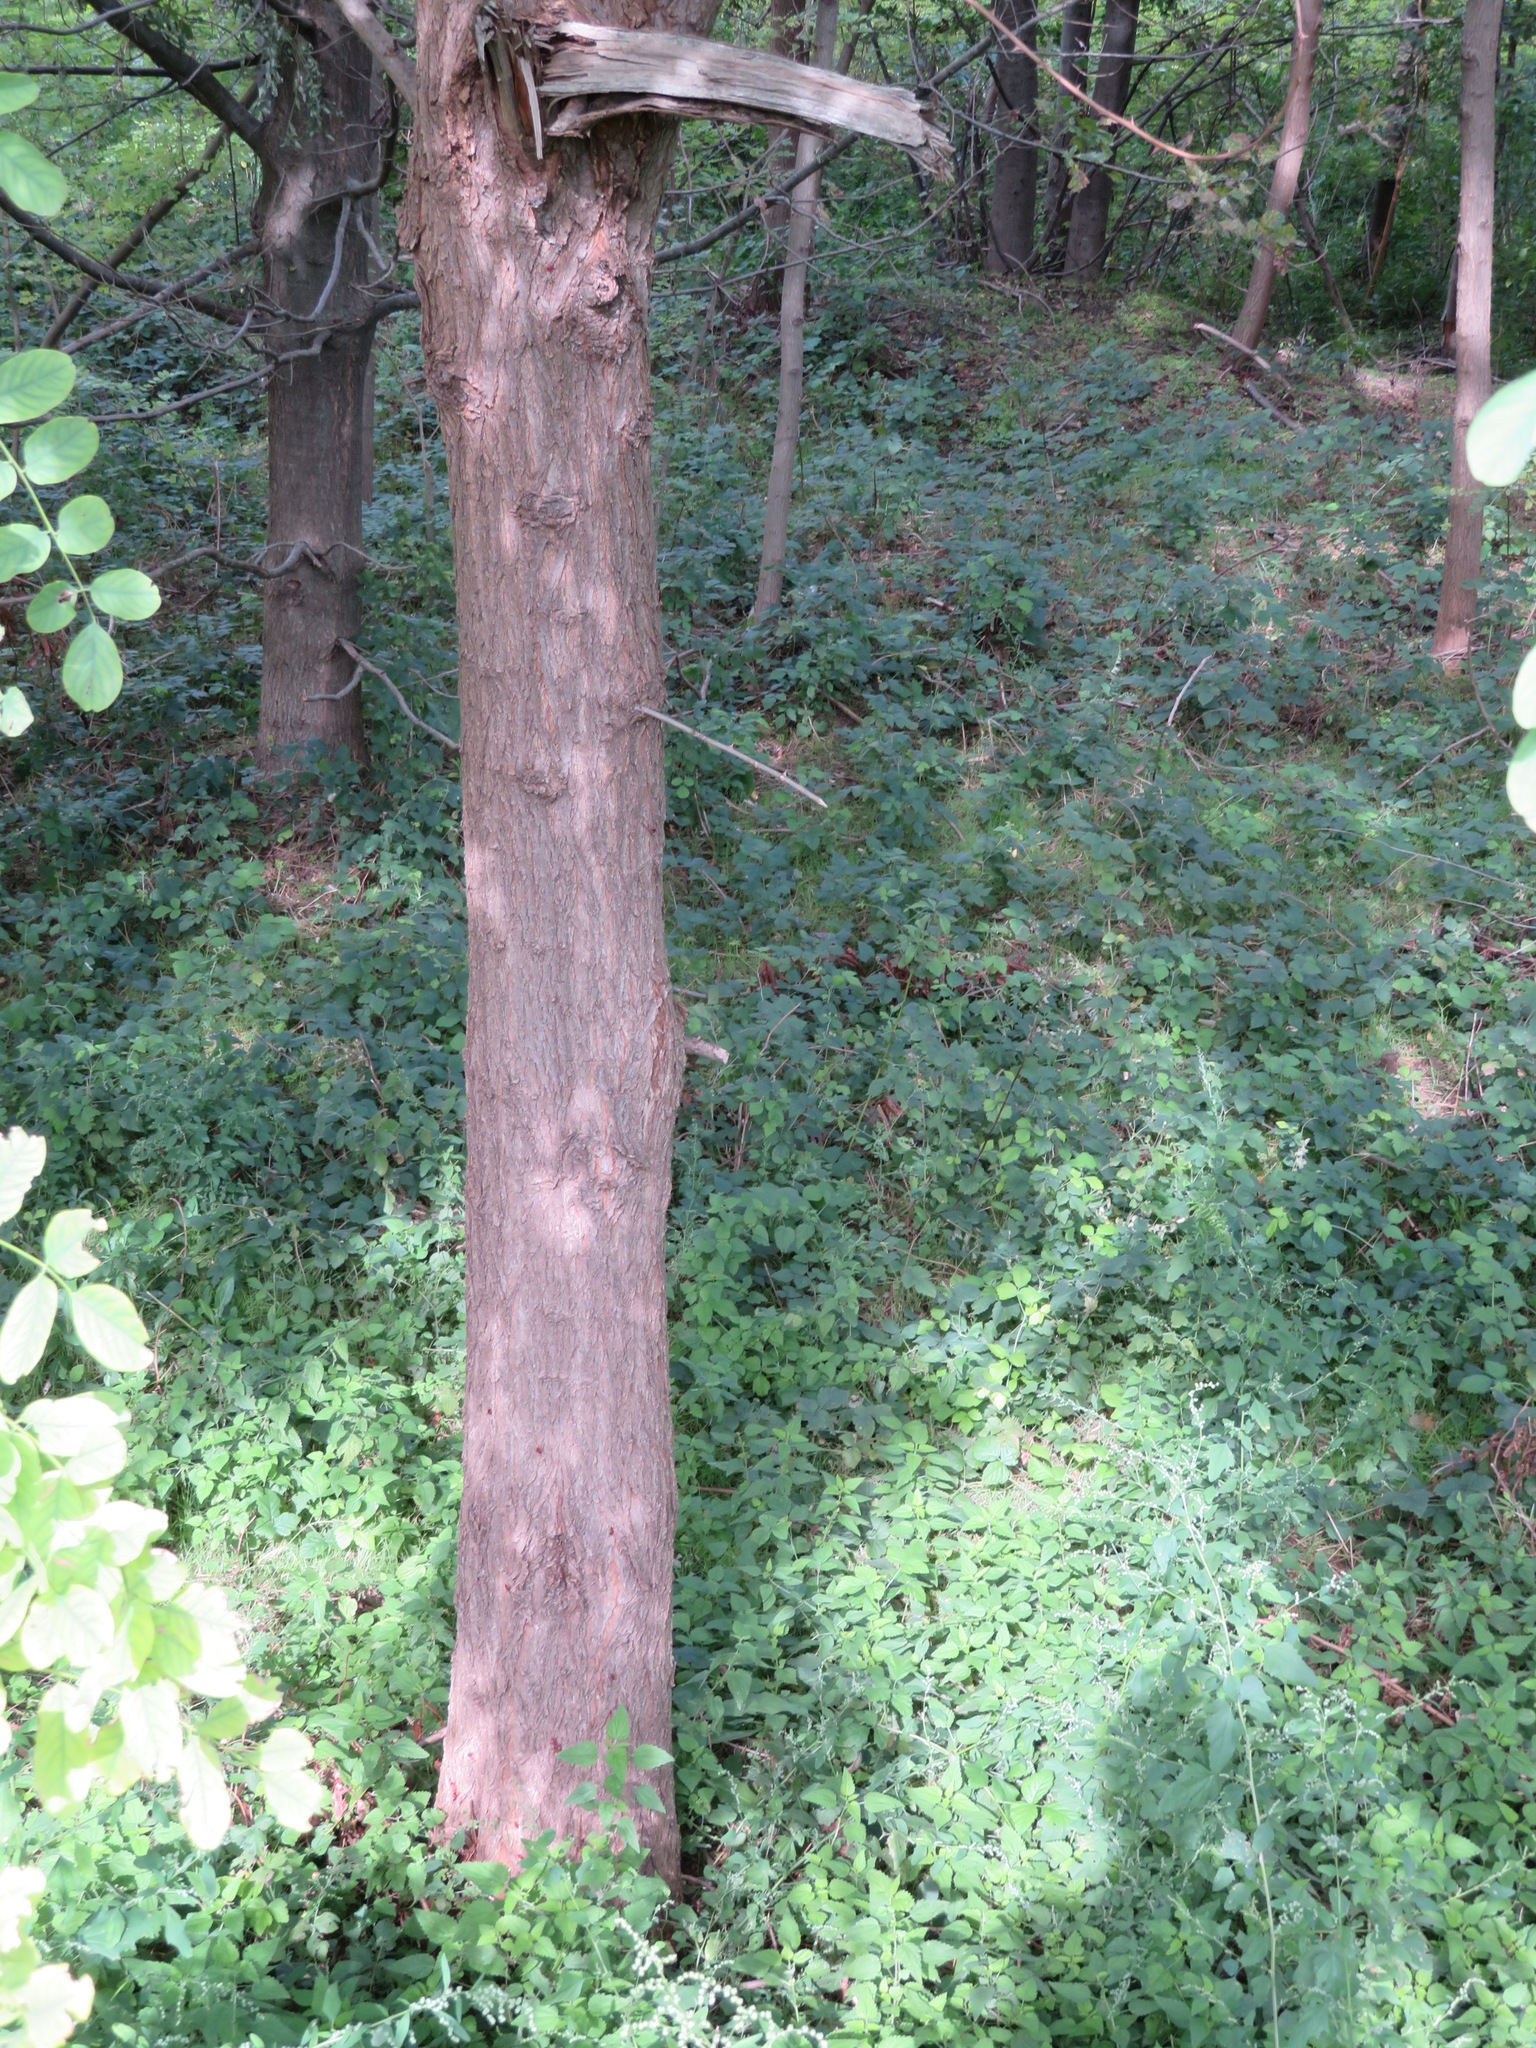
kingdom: Plantae
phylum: Tracheophyta
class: Magnoliopsida
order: Fabales
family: Fabaceae
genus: Robinia
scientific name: Robinia pseudoacacia
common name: Black locust
